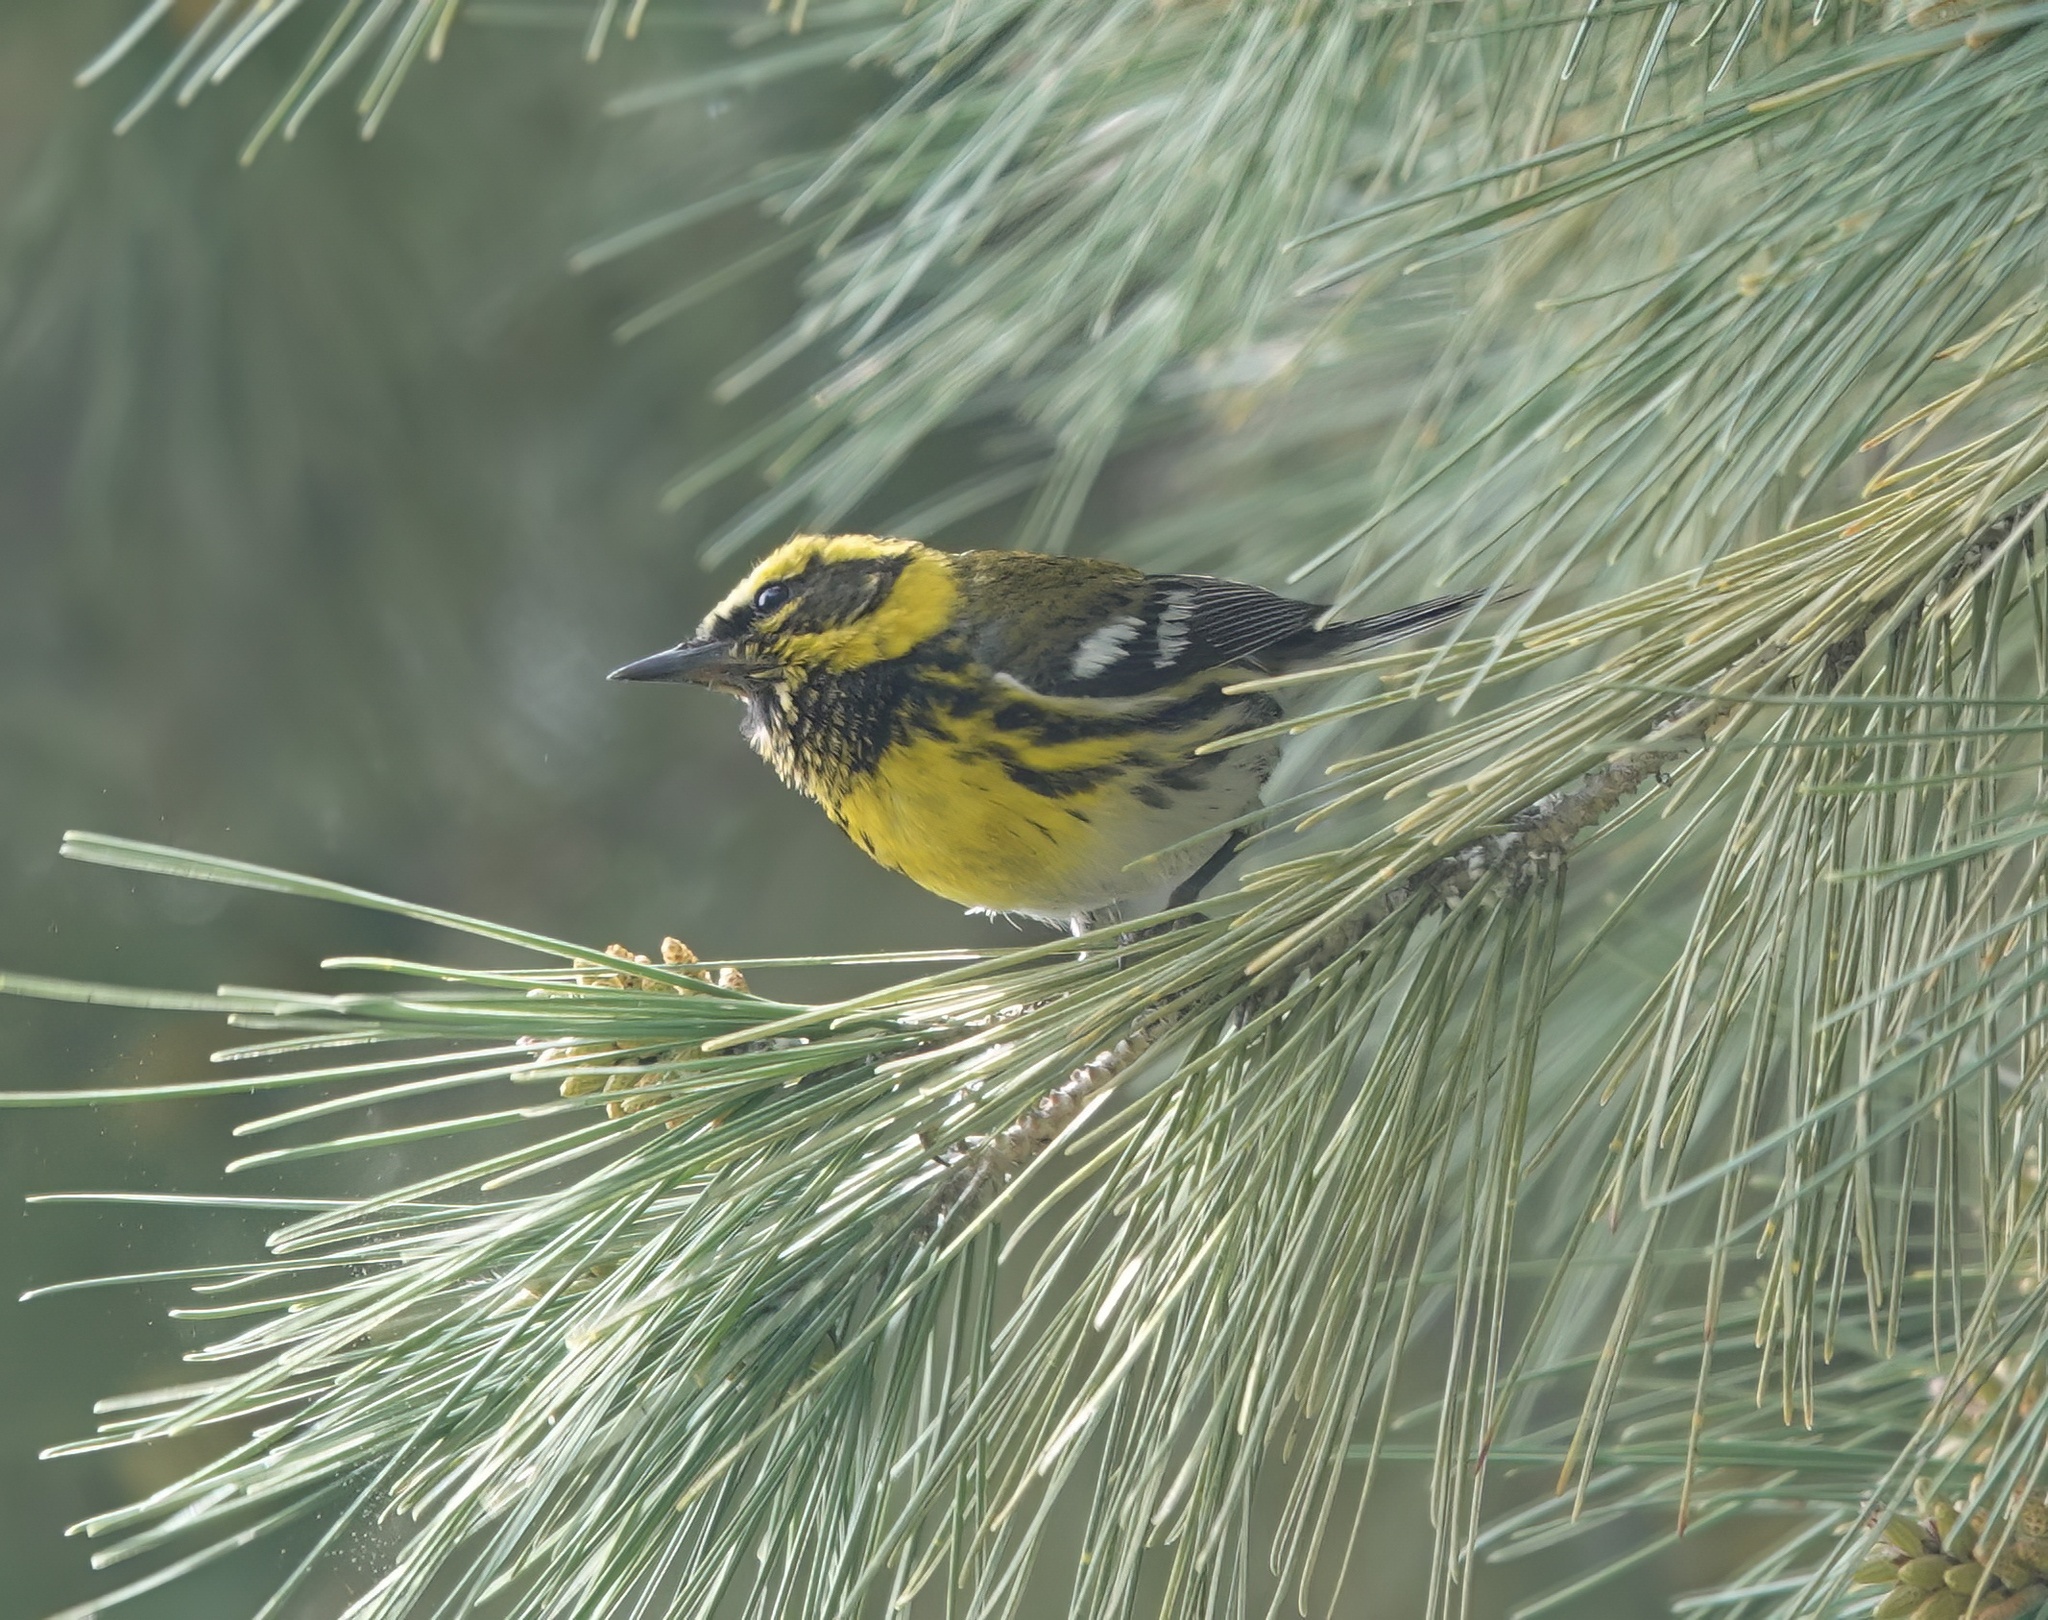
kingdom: Animalia
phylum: Chordata
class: Aves
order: Passeriformes
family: Parulidae
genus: Setophaga
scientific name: Setophaga townsendi
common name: Townsend's warbler
